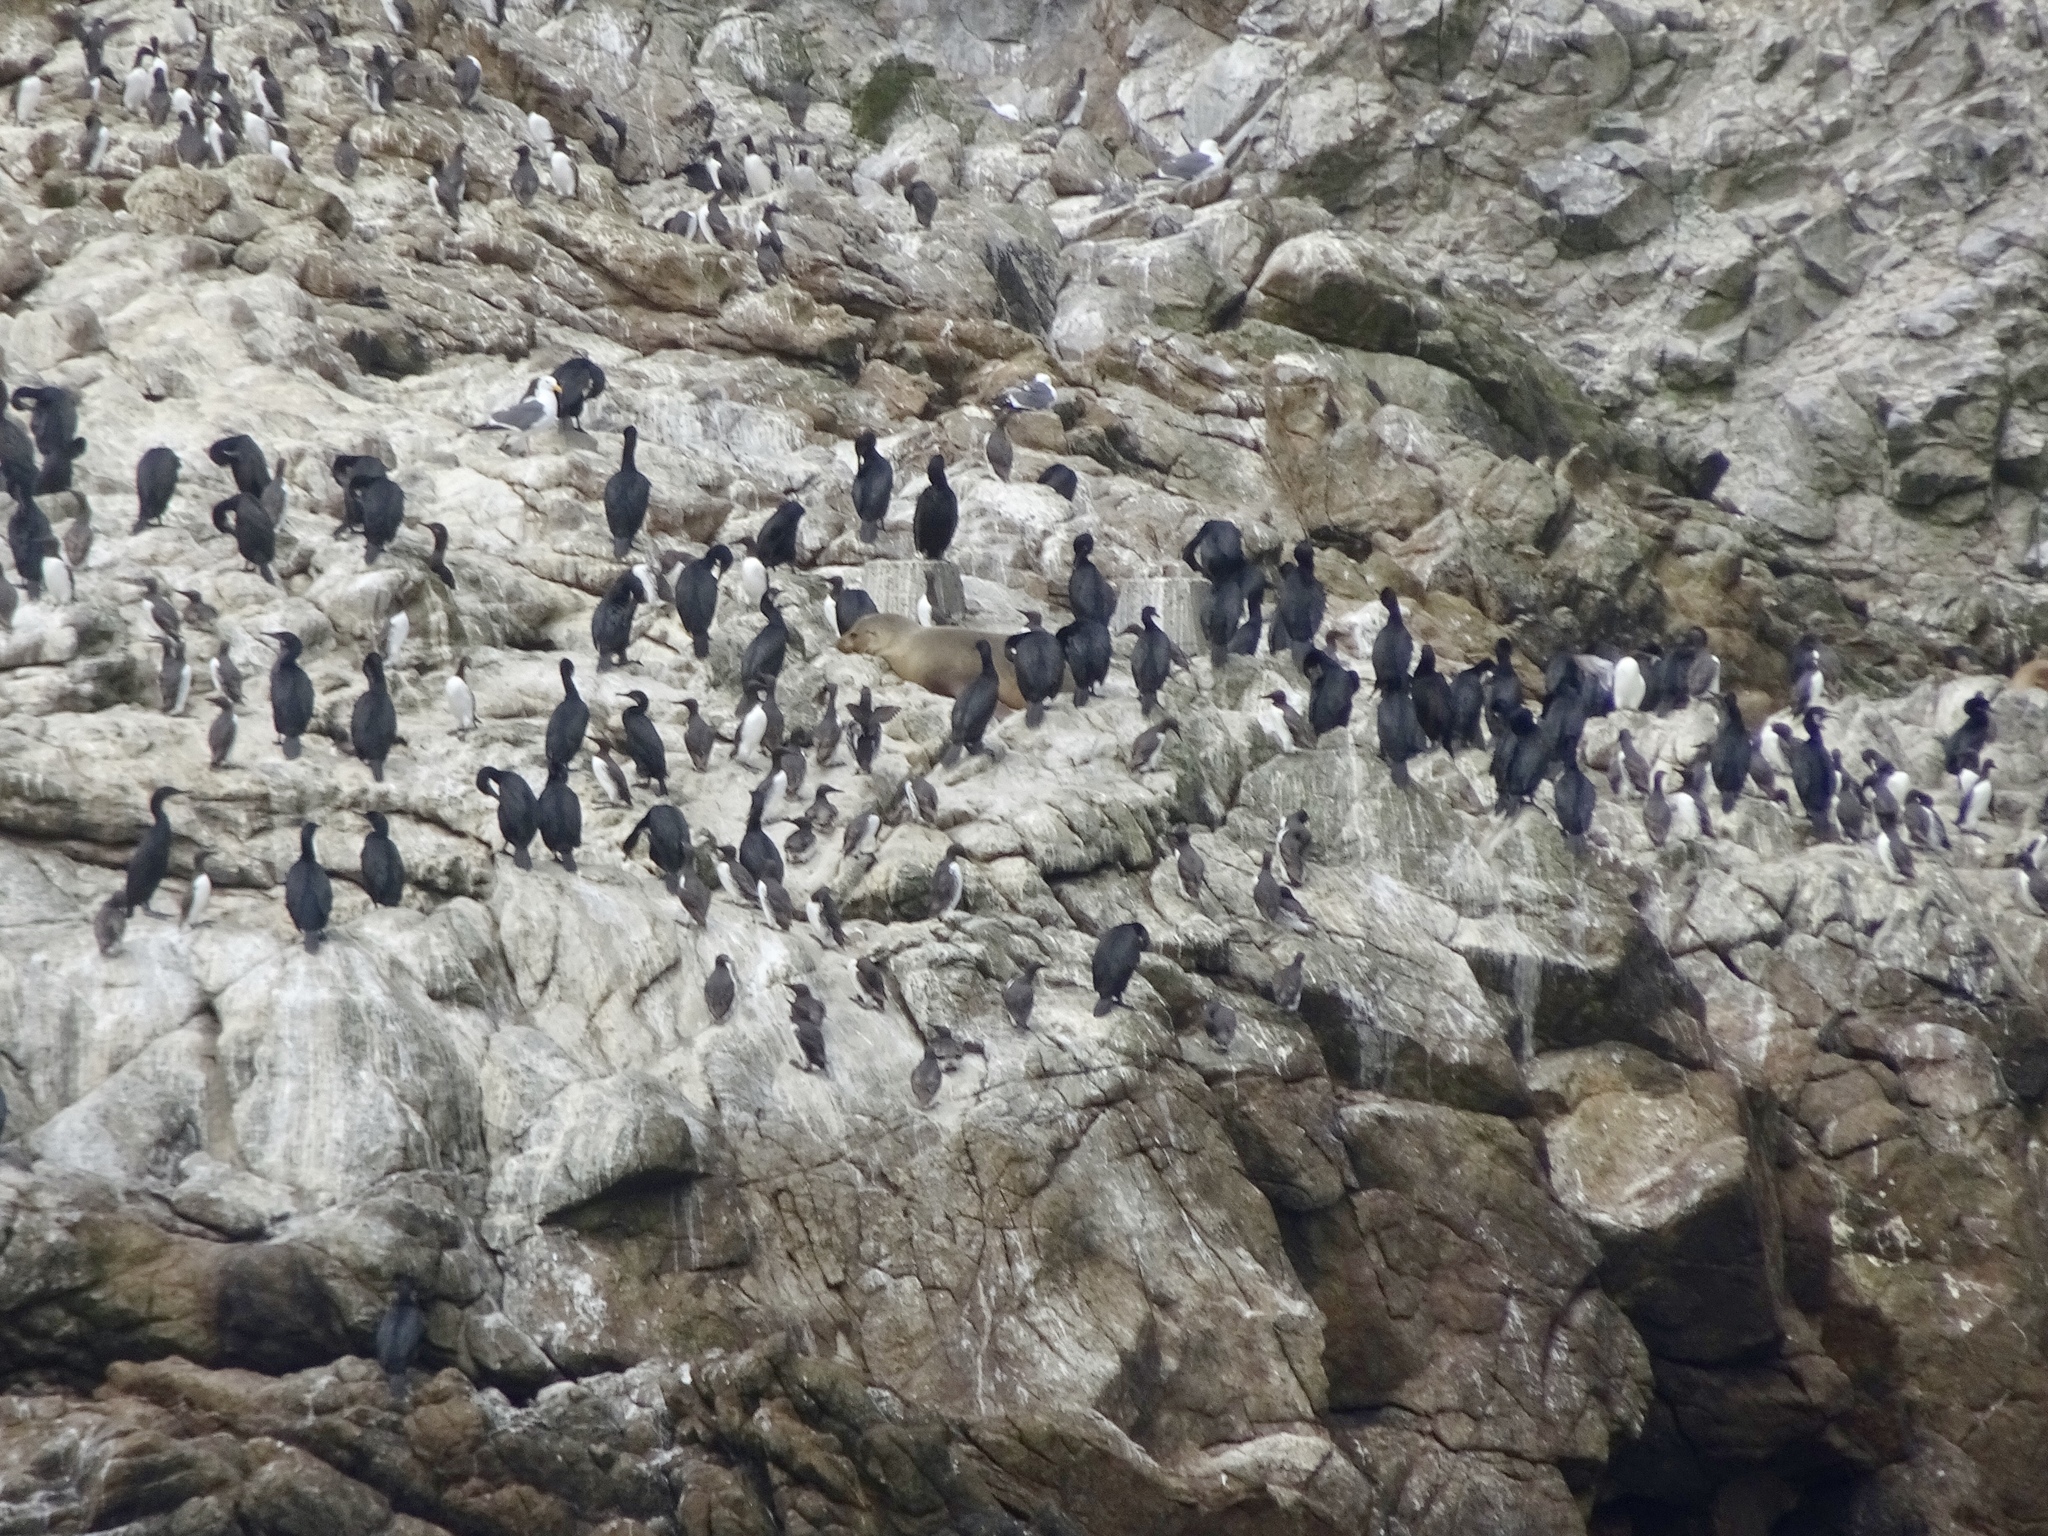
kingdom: Animalia
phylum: Chordata
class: Aves
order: Suliformes
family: Phalacrocoracidae
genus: Urile
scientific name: Urile penicillatus
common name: Brandt's cormorant
